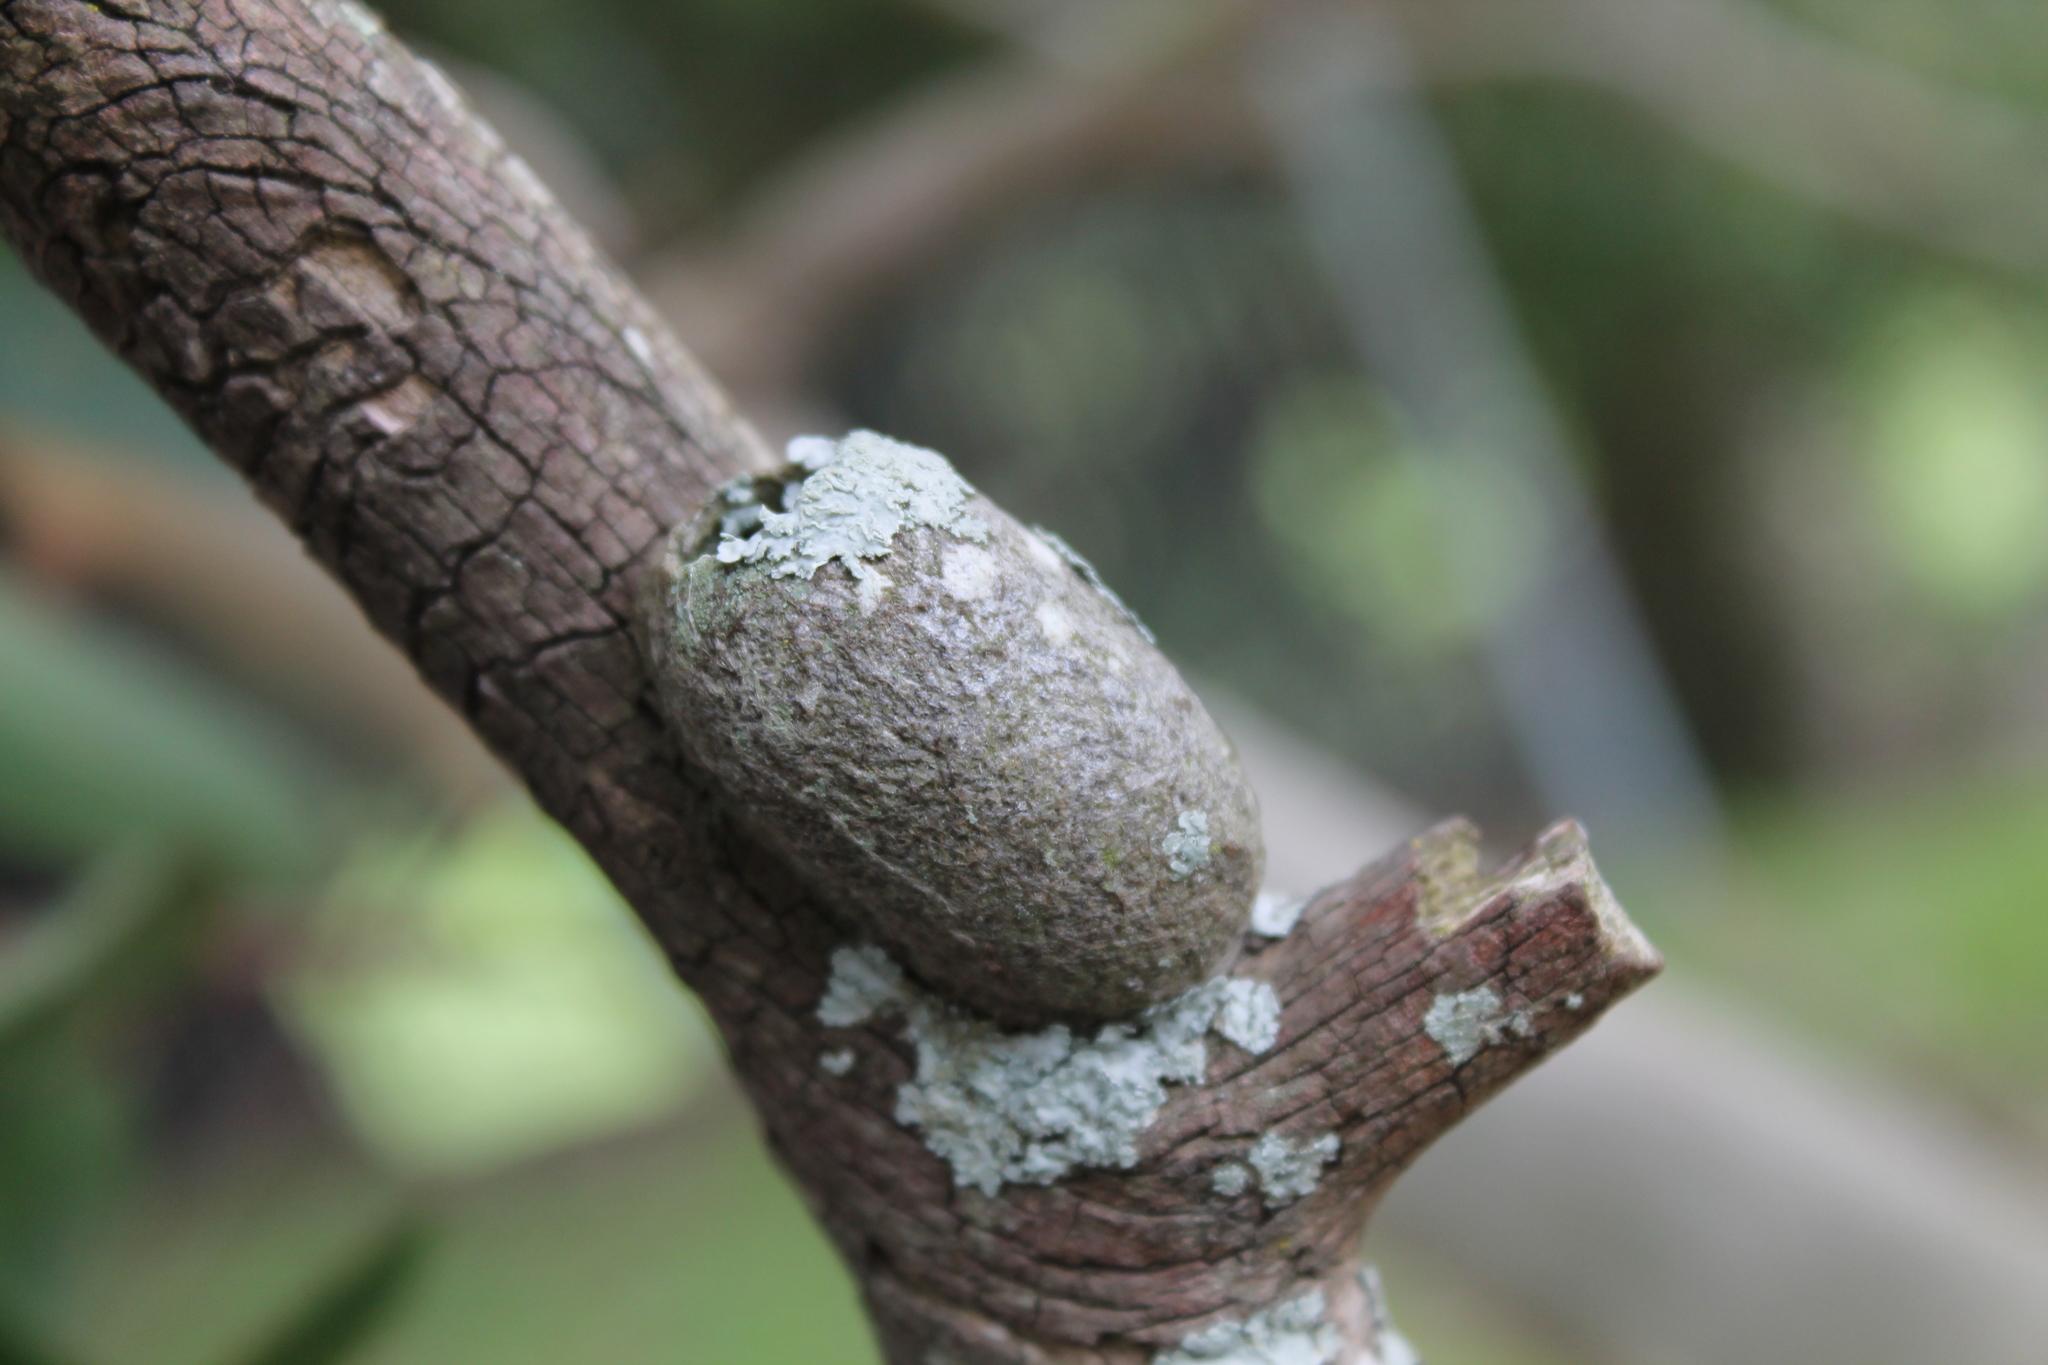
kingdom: Animalia
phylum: Arthropoda
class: Insecta
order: Lepidoptera
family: Saturniidae
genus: Opodiphthera
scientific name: Opodiphthera
